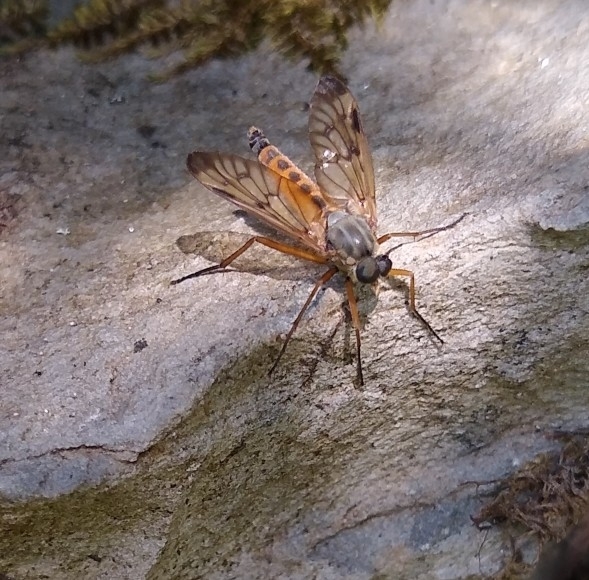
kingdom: Animalia
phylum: Arthropoda
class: Insecta
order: Diptera
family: Rhagionidae
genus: Rhagio
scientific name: Rhagio scolopacea
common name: Downlooker snipefly
